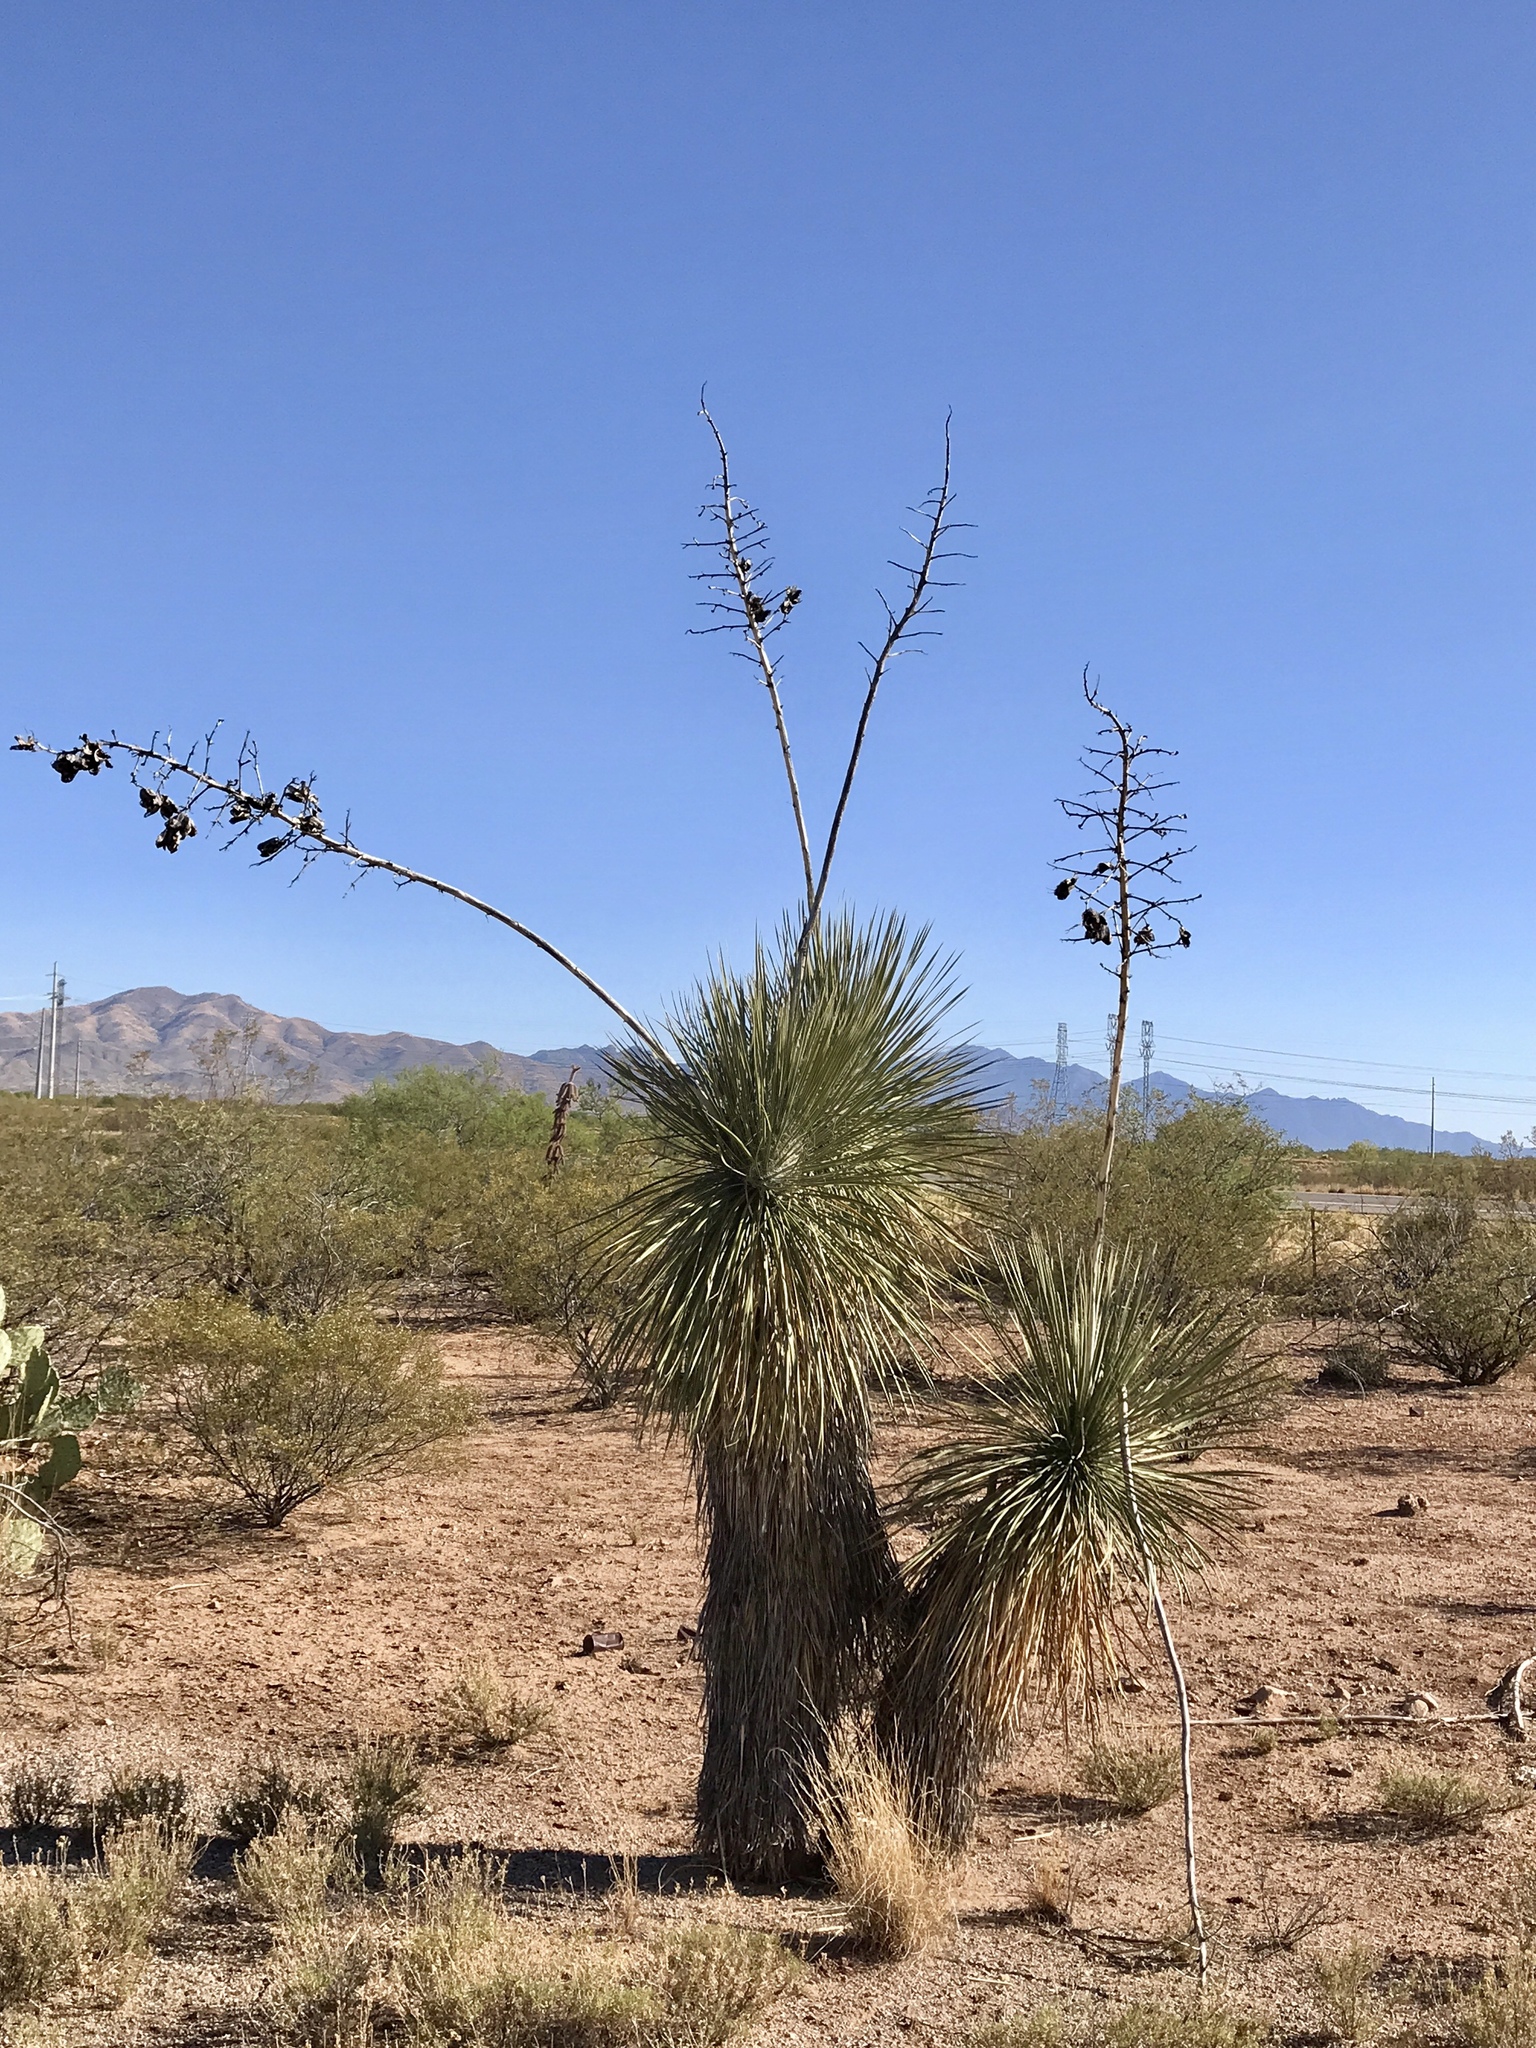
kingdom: Plantae
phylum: Tracheophyta
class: Liliopsida
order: Asparagales
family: Asparagaceae
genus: Yucca
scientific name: Yucca elata
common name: Palmella
